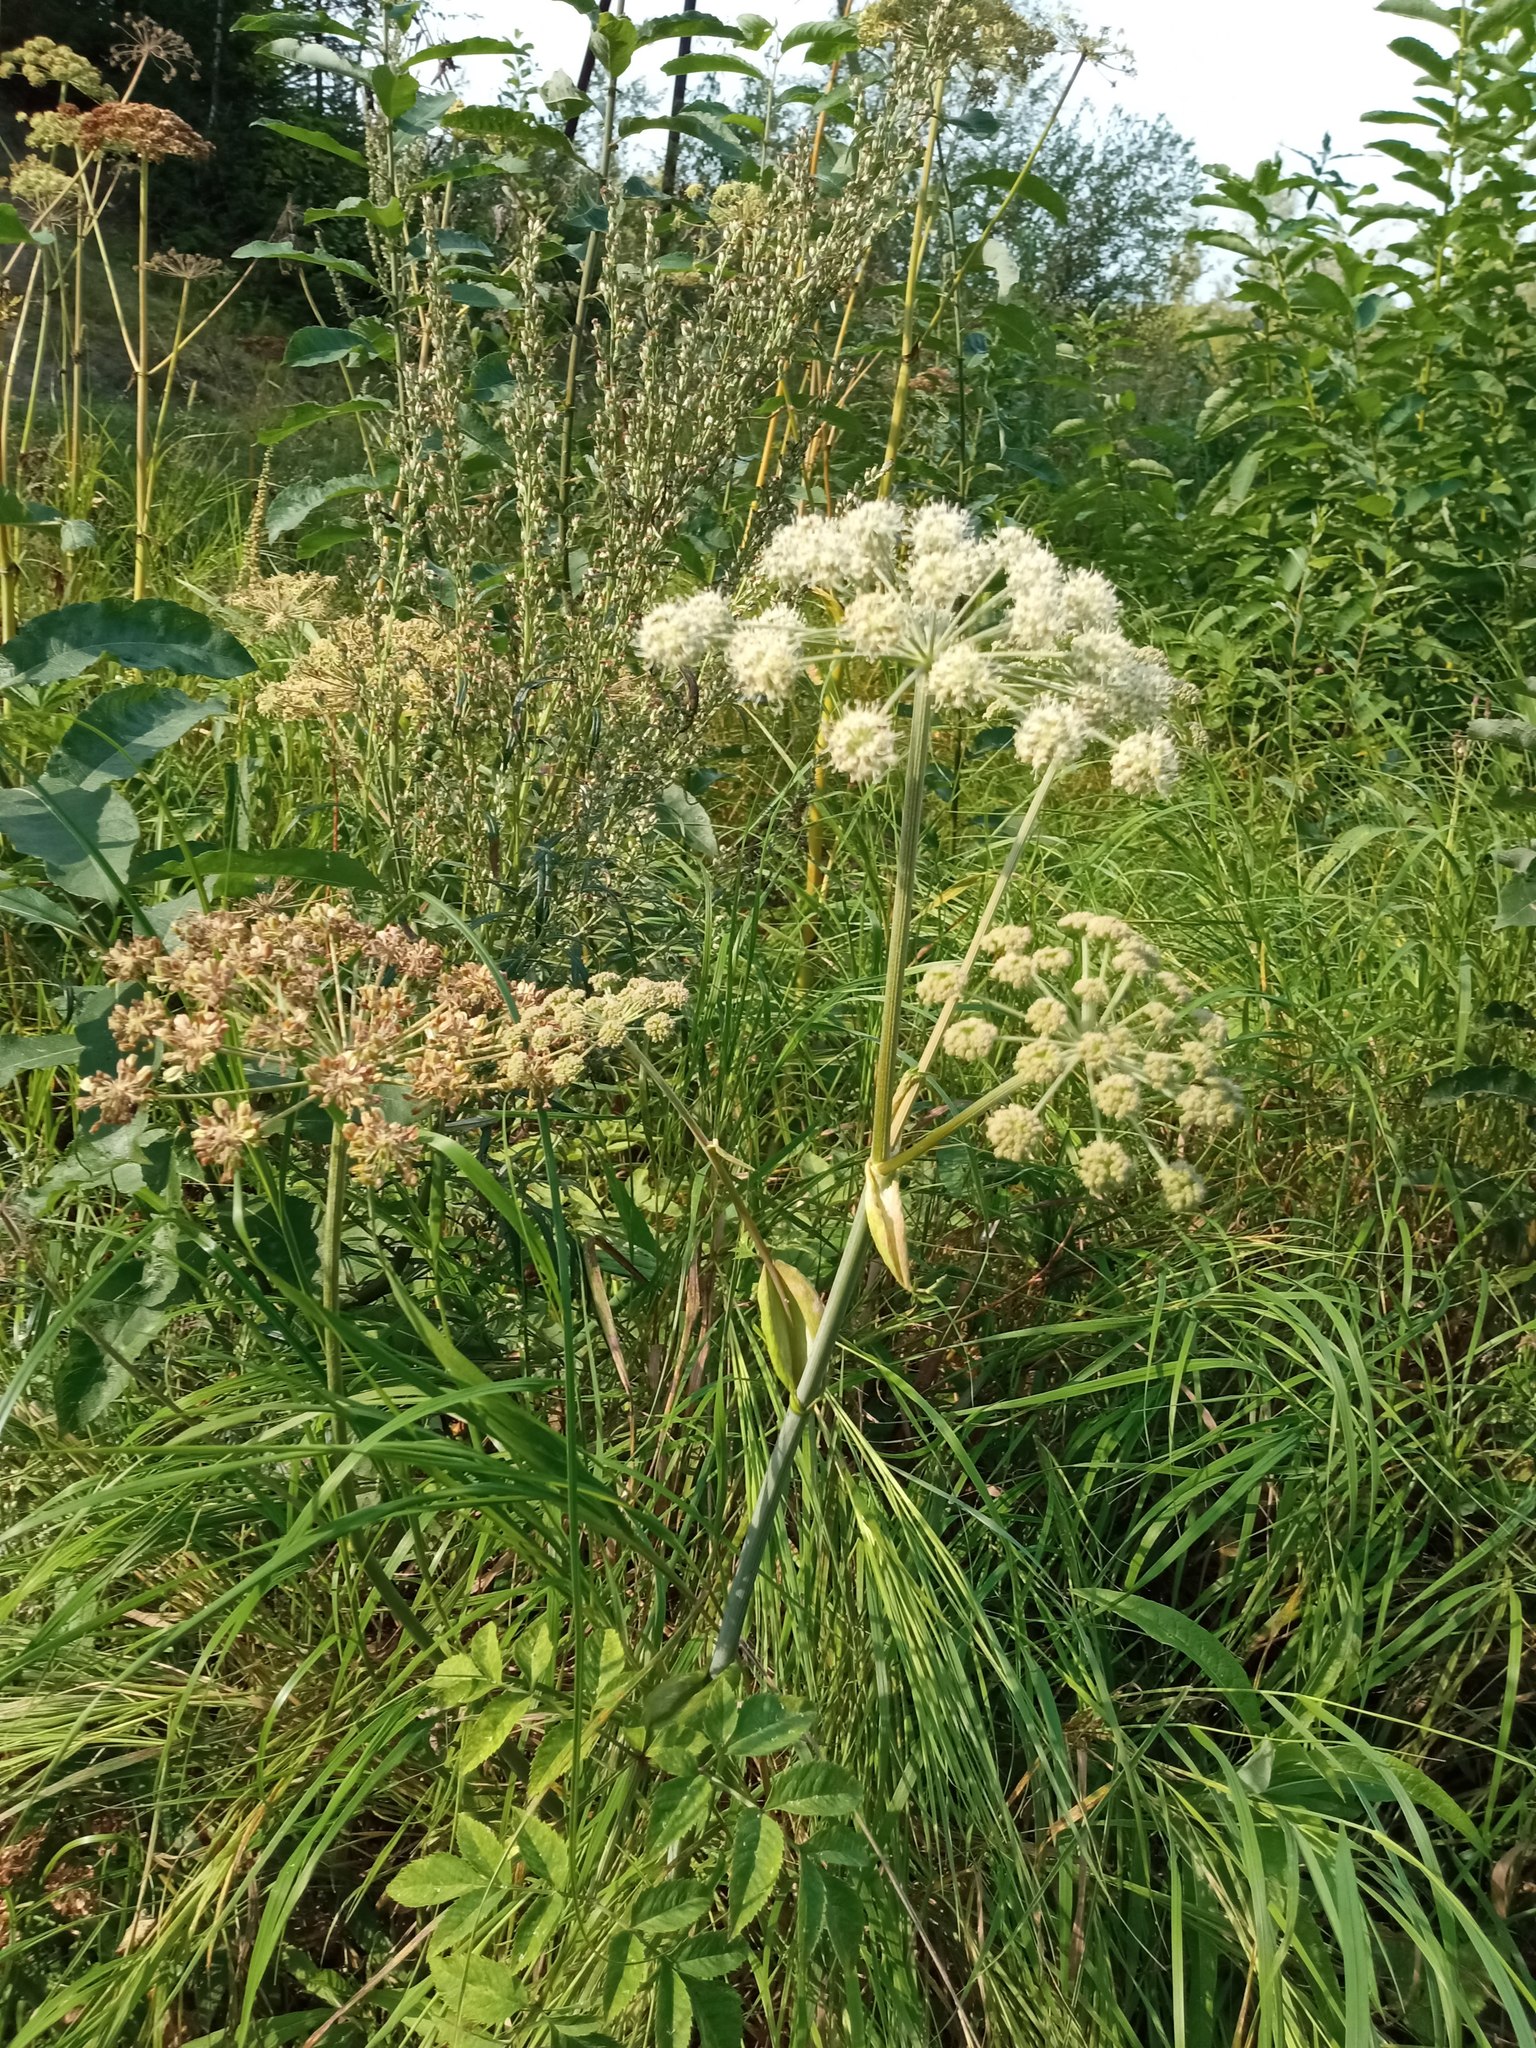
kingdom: Plantae
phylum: Tracheophyta
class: Magnoliopsida
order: Apiales
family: Apiaceae
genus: Angelica
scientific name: Angelica sylvestris
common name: Wild angelica
